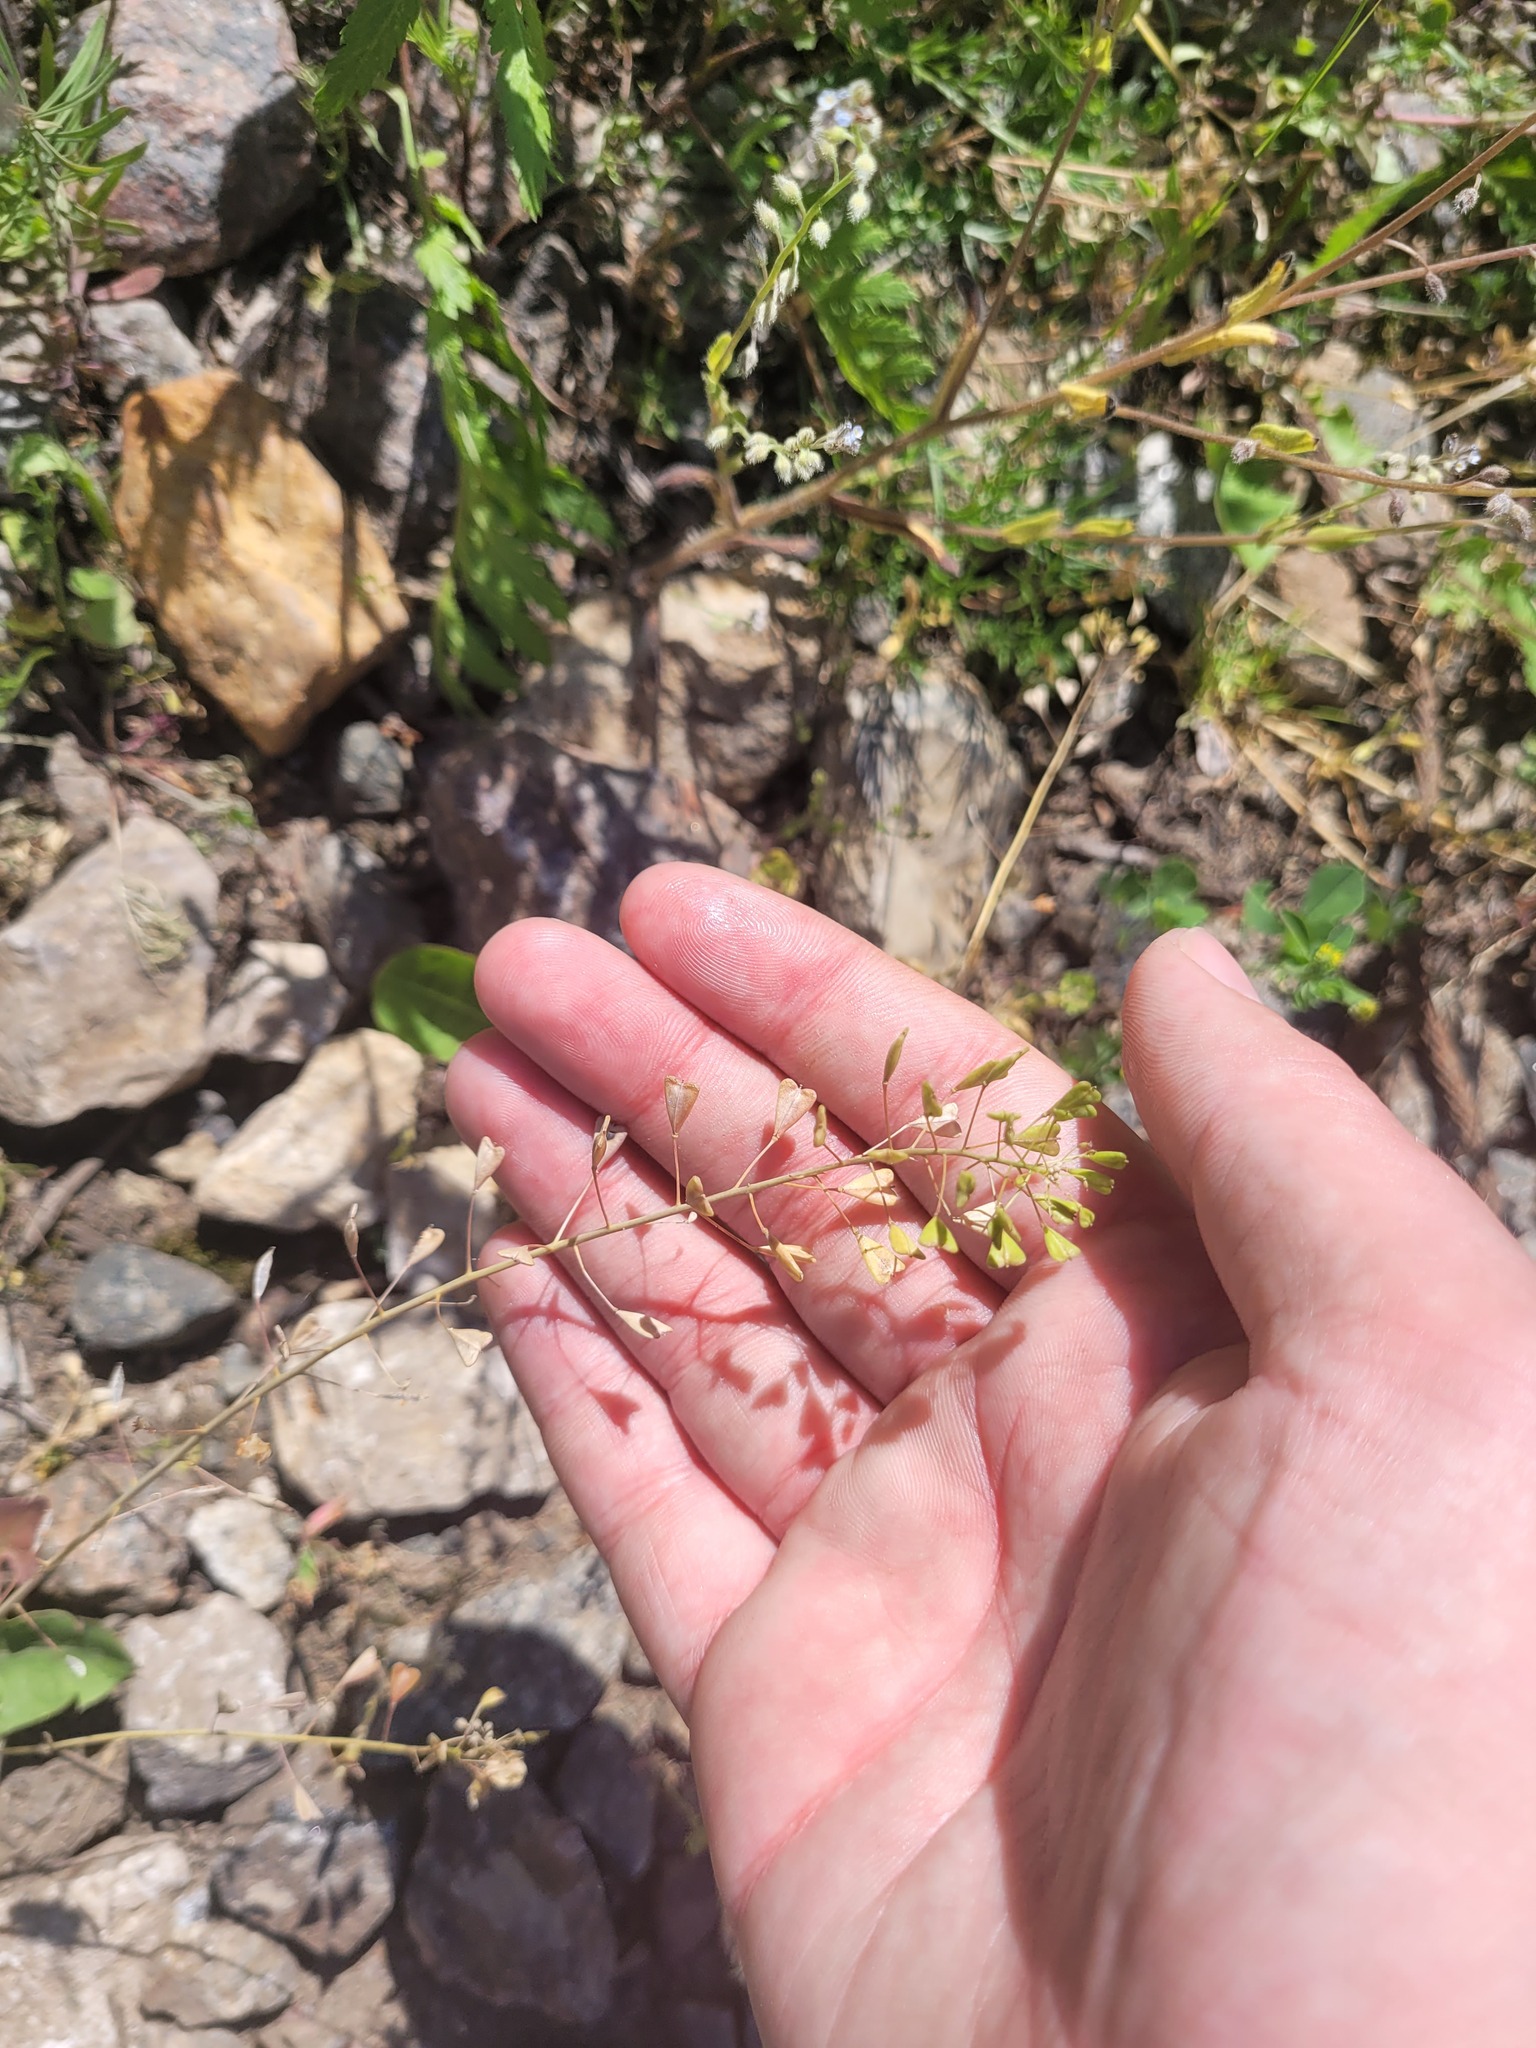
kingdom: Plantae
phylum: Tracheophyta
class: Magnoliopsida
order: Brassicales
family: Brassicaceae
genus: Capsella
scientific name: Capsella bursa-pastoris
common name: Shepherd's purse
